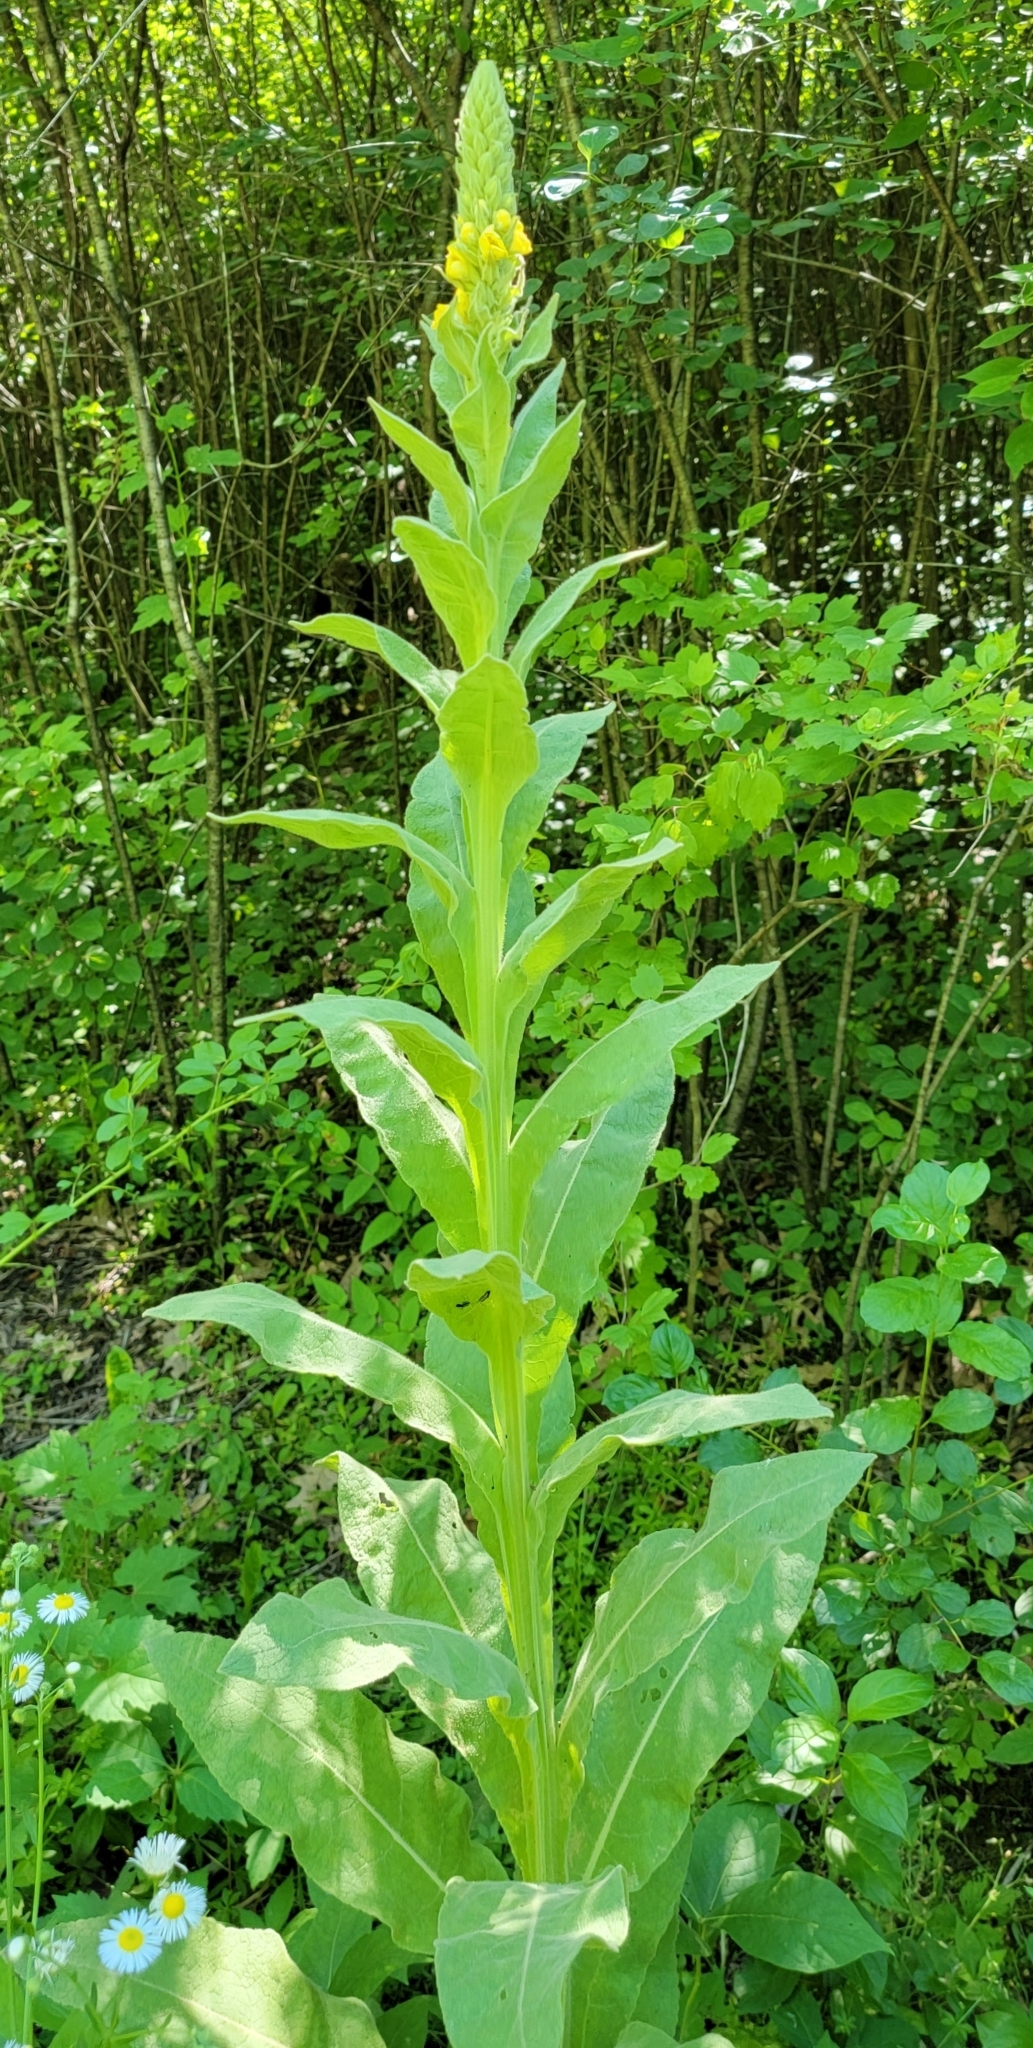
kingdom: Plantae
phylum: Tracheophyta
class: Magnoliopsida
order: Lamiales
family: Scrophulariaceae
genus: Verbascum
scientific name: Verbascum thapsus
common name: Common mullein
